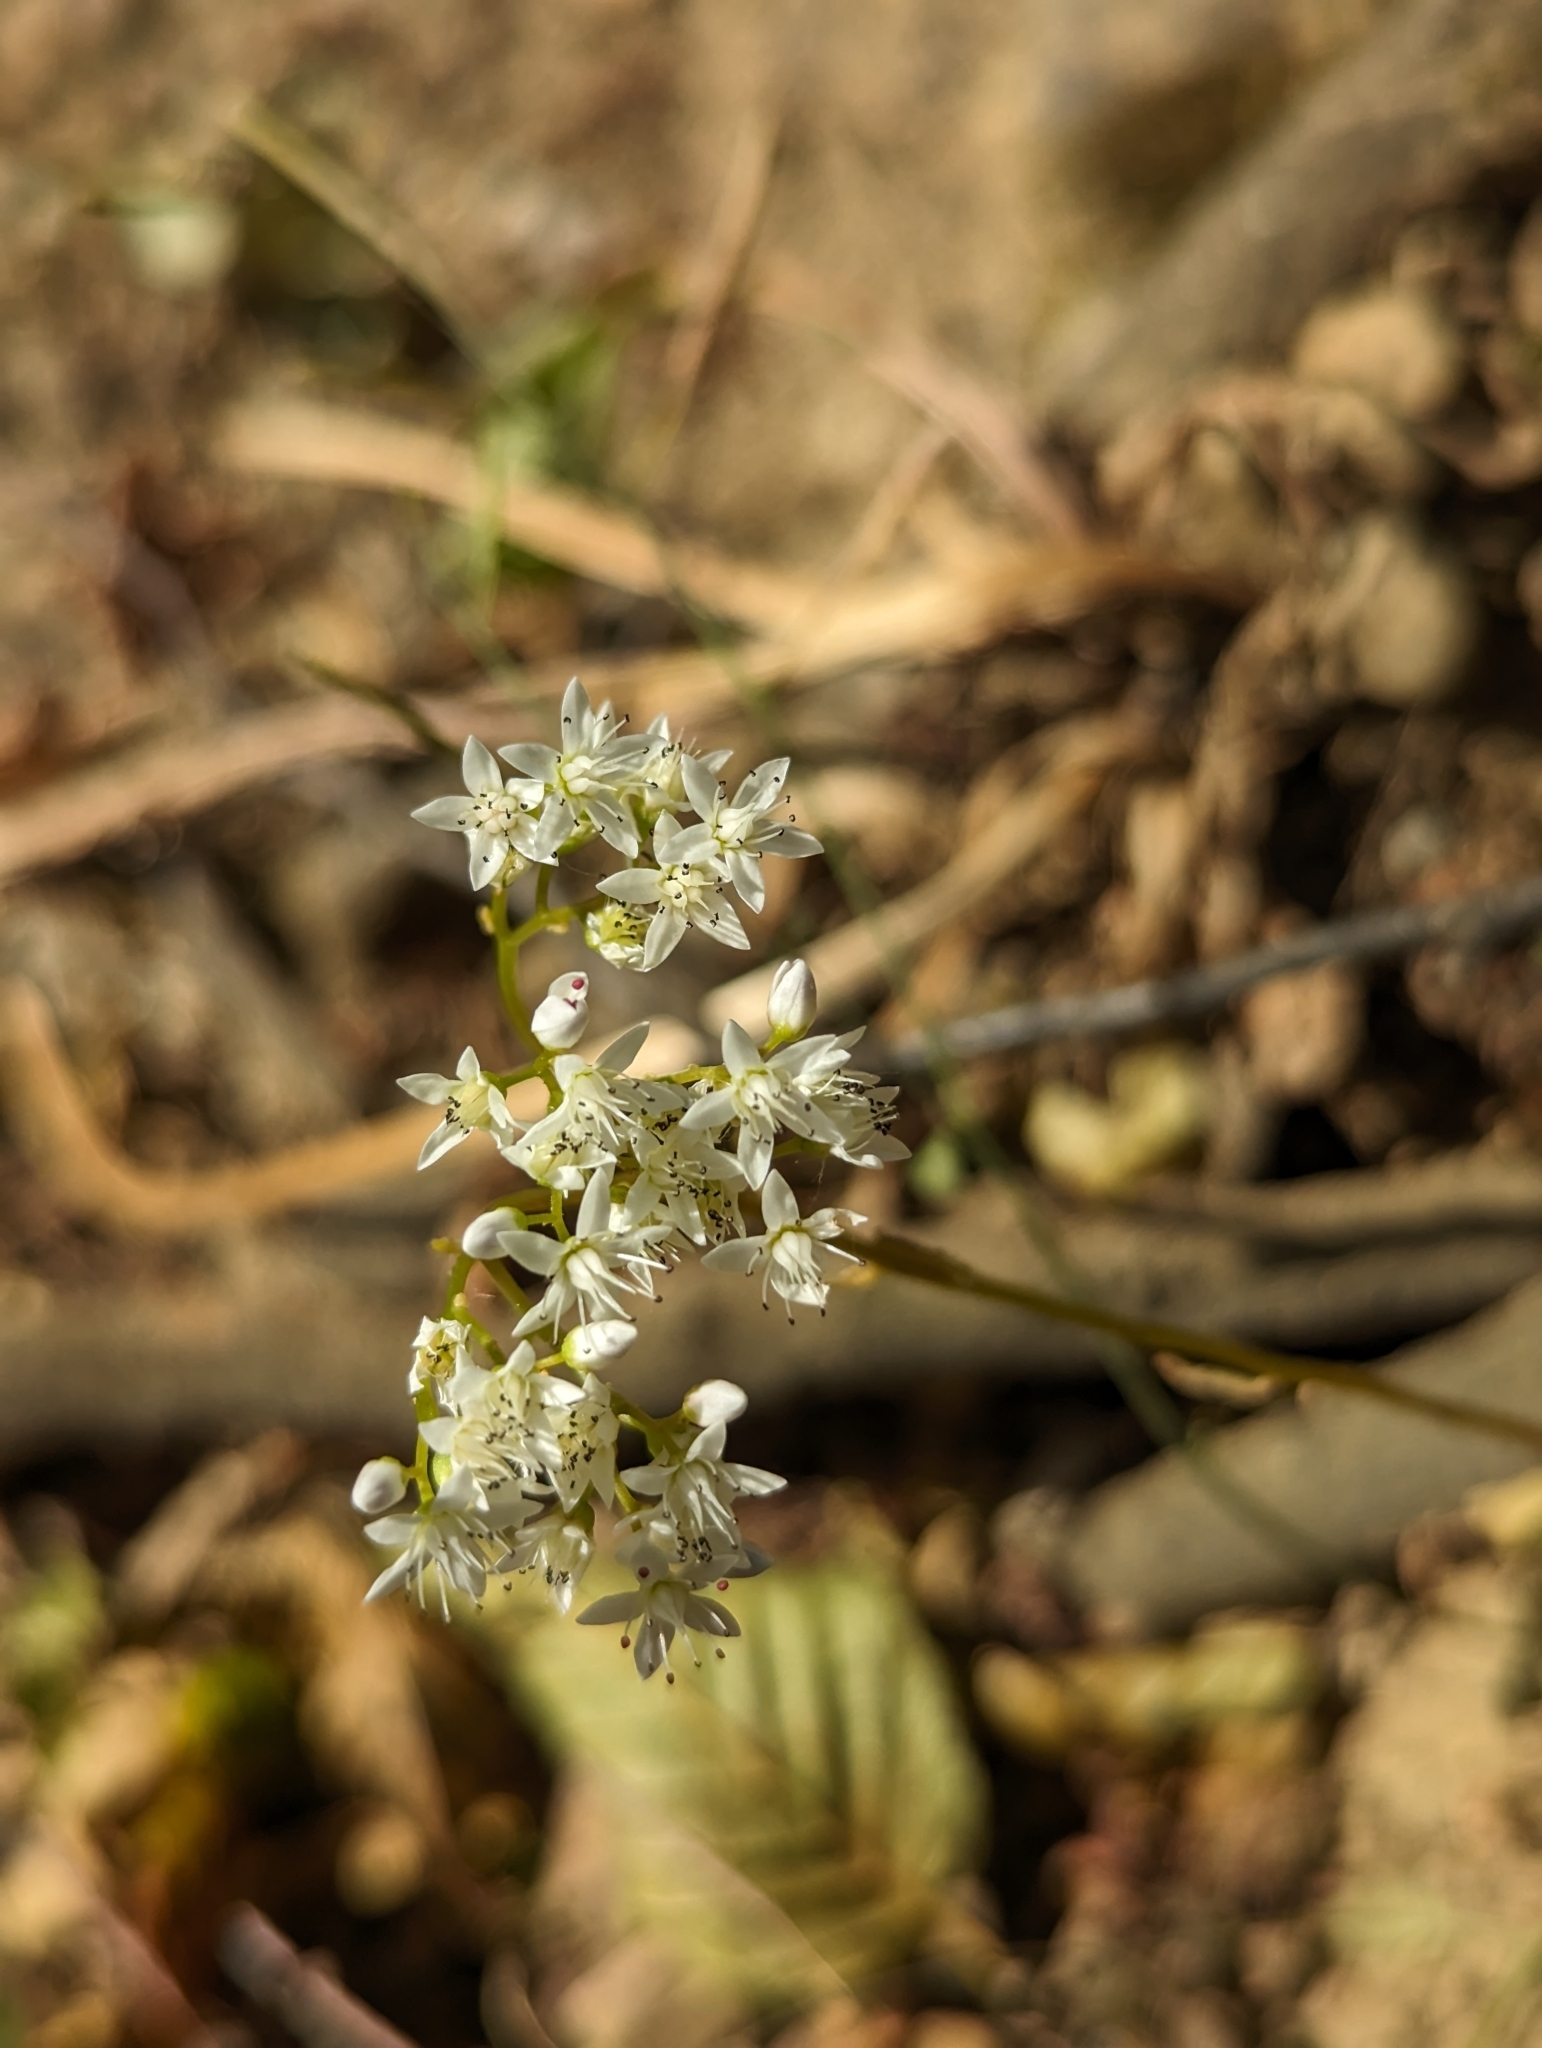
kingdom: Plantae
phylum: Tracheophyta
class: Magnoliopsida
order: Saxifragales
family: Crassulaceae
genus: Sedum
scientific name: Sedum album
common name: White stonecrop
